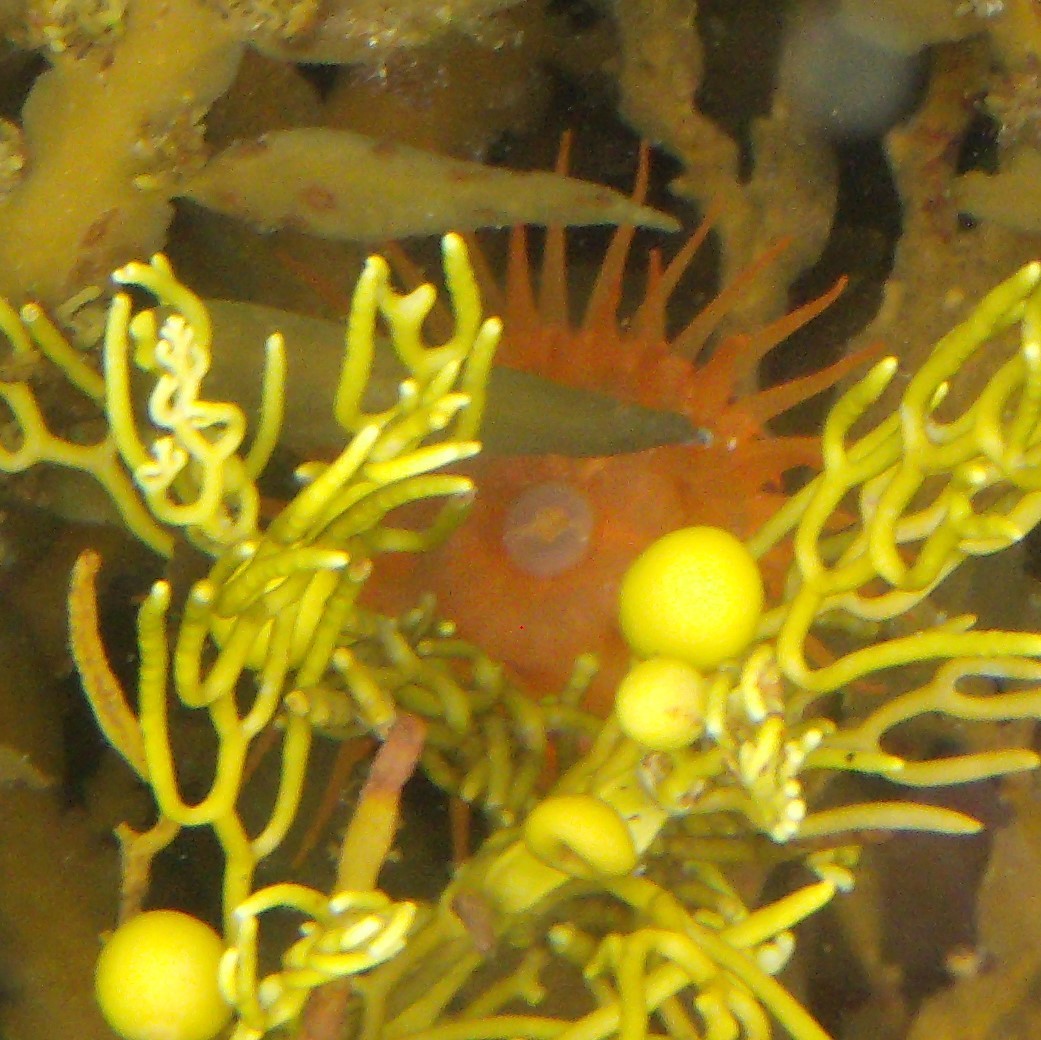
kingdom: Animalia
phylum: Cnidaria
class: Anthozoa
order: Actiniaria
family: Actiniidae
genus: Epiactis
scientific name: Epiactis
